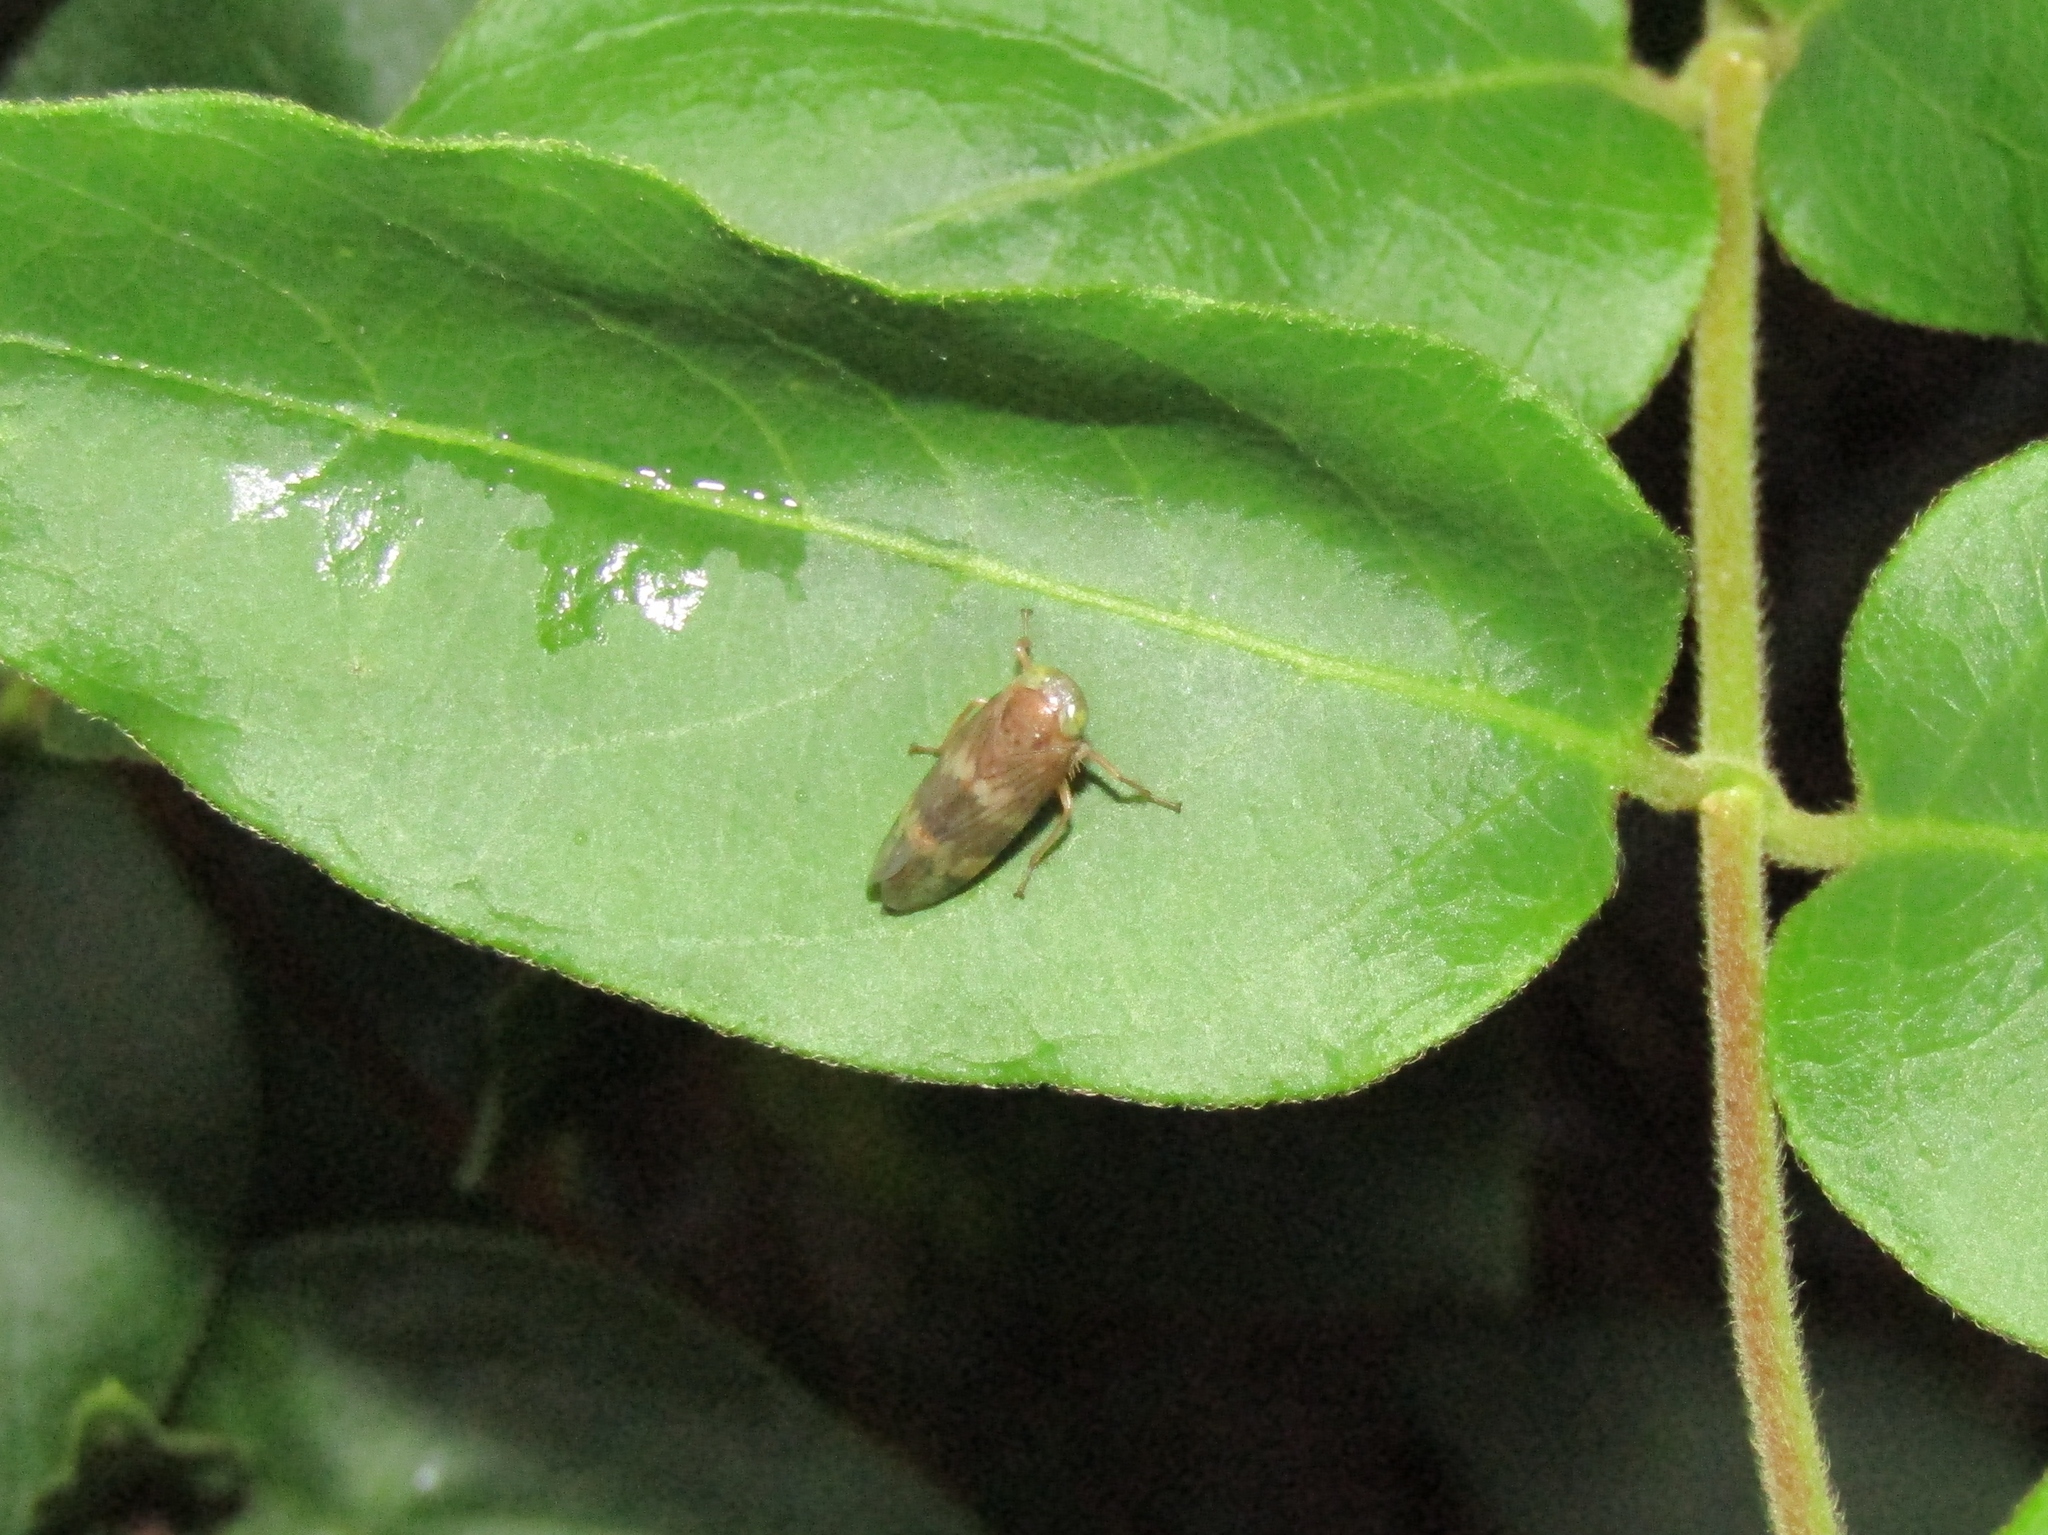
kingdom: Animalia
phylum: Arthropoda
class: Insecta
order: Hemiptera
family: Cicadellidae
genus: Jikradia
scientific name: Jikradia olitoria
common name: Coppery leafhopper
